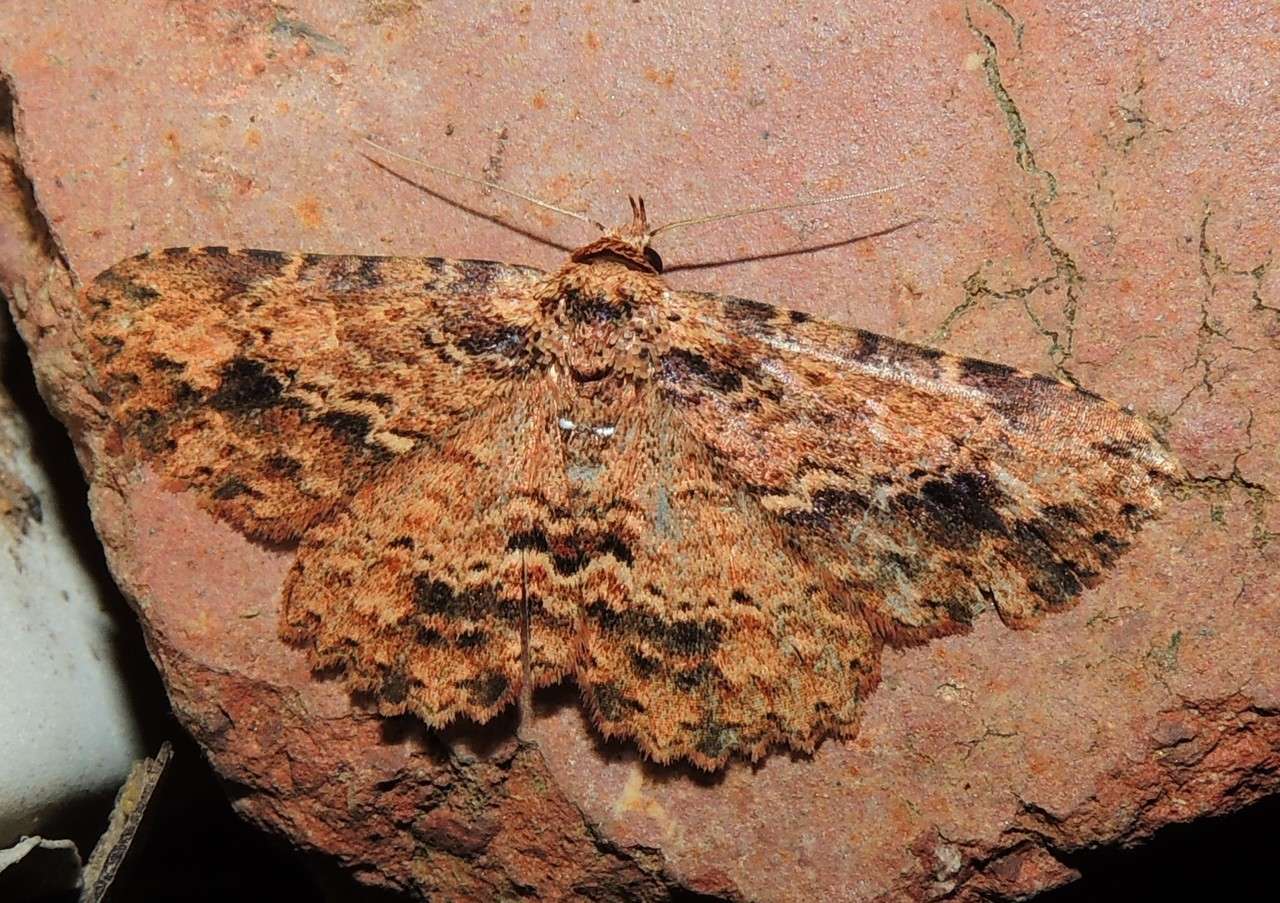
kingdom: Animalia
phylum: Arthropoda
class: Insecta
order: Lepidoptera
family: Erebidae
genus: Artigisa
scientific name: Artigisa melanephele
